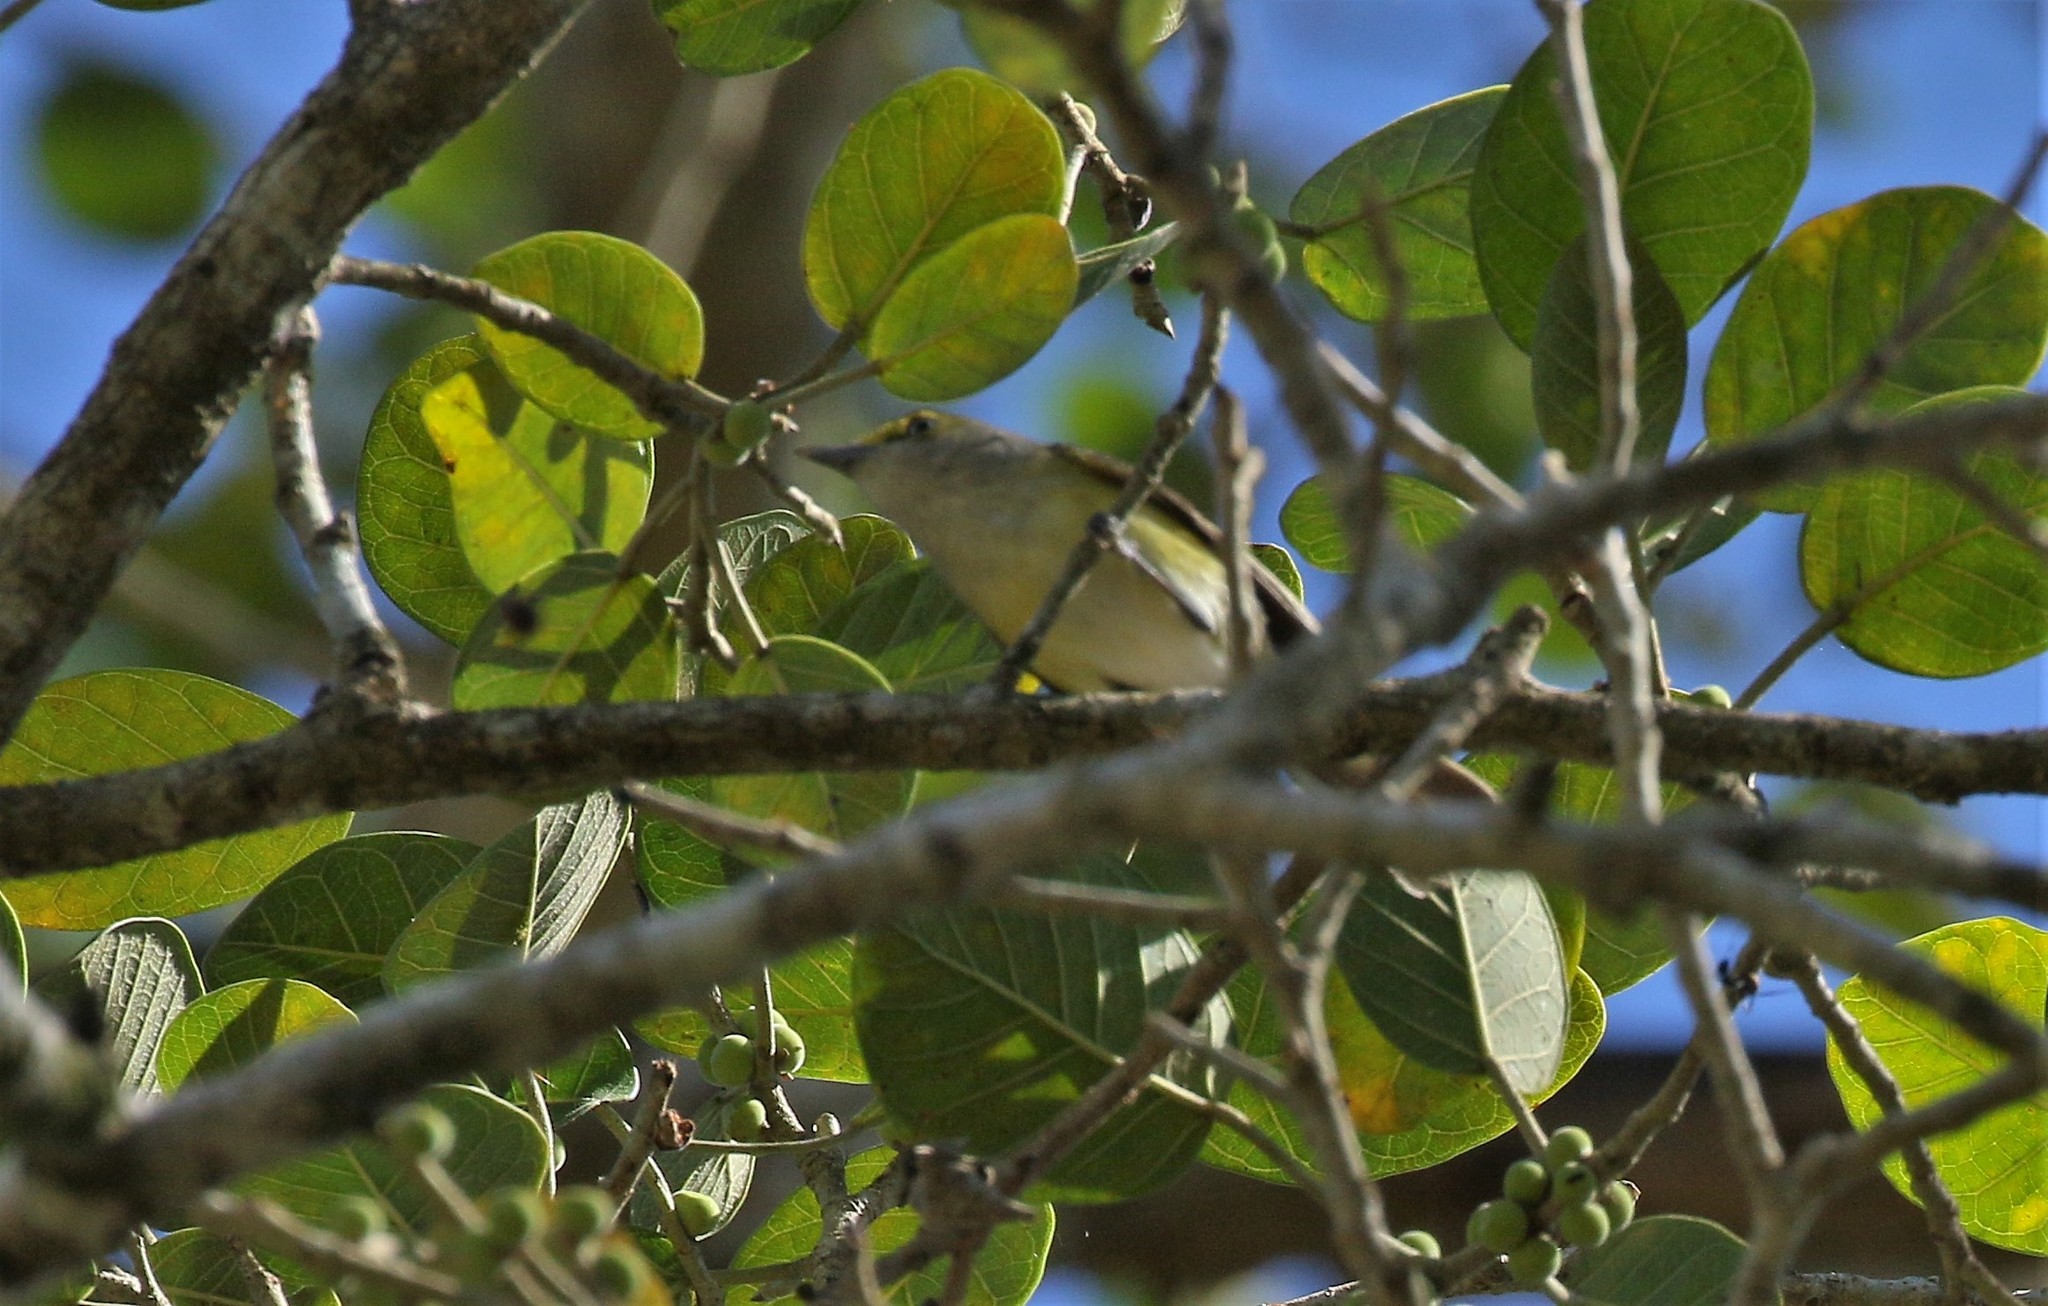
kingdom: Animalia
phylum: Chordata
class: Aves
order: Passeriformes
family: Vireonidae
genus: Vireo
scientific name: Vireo griseus
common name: White-eyed vireo
